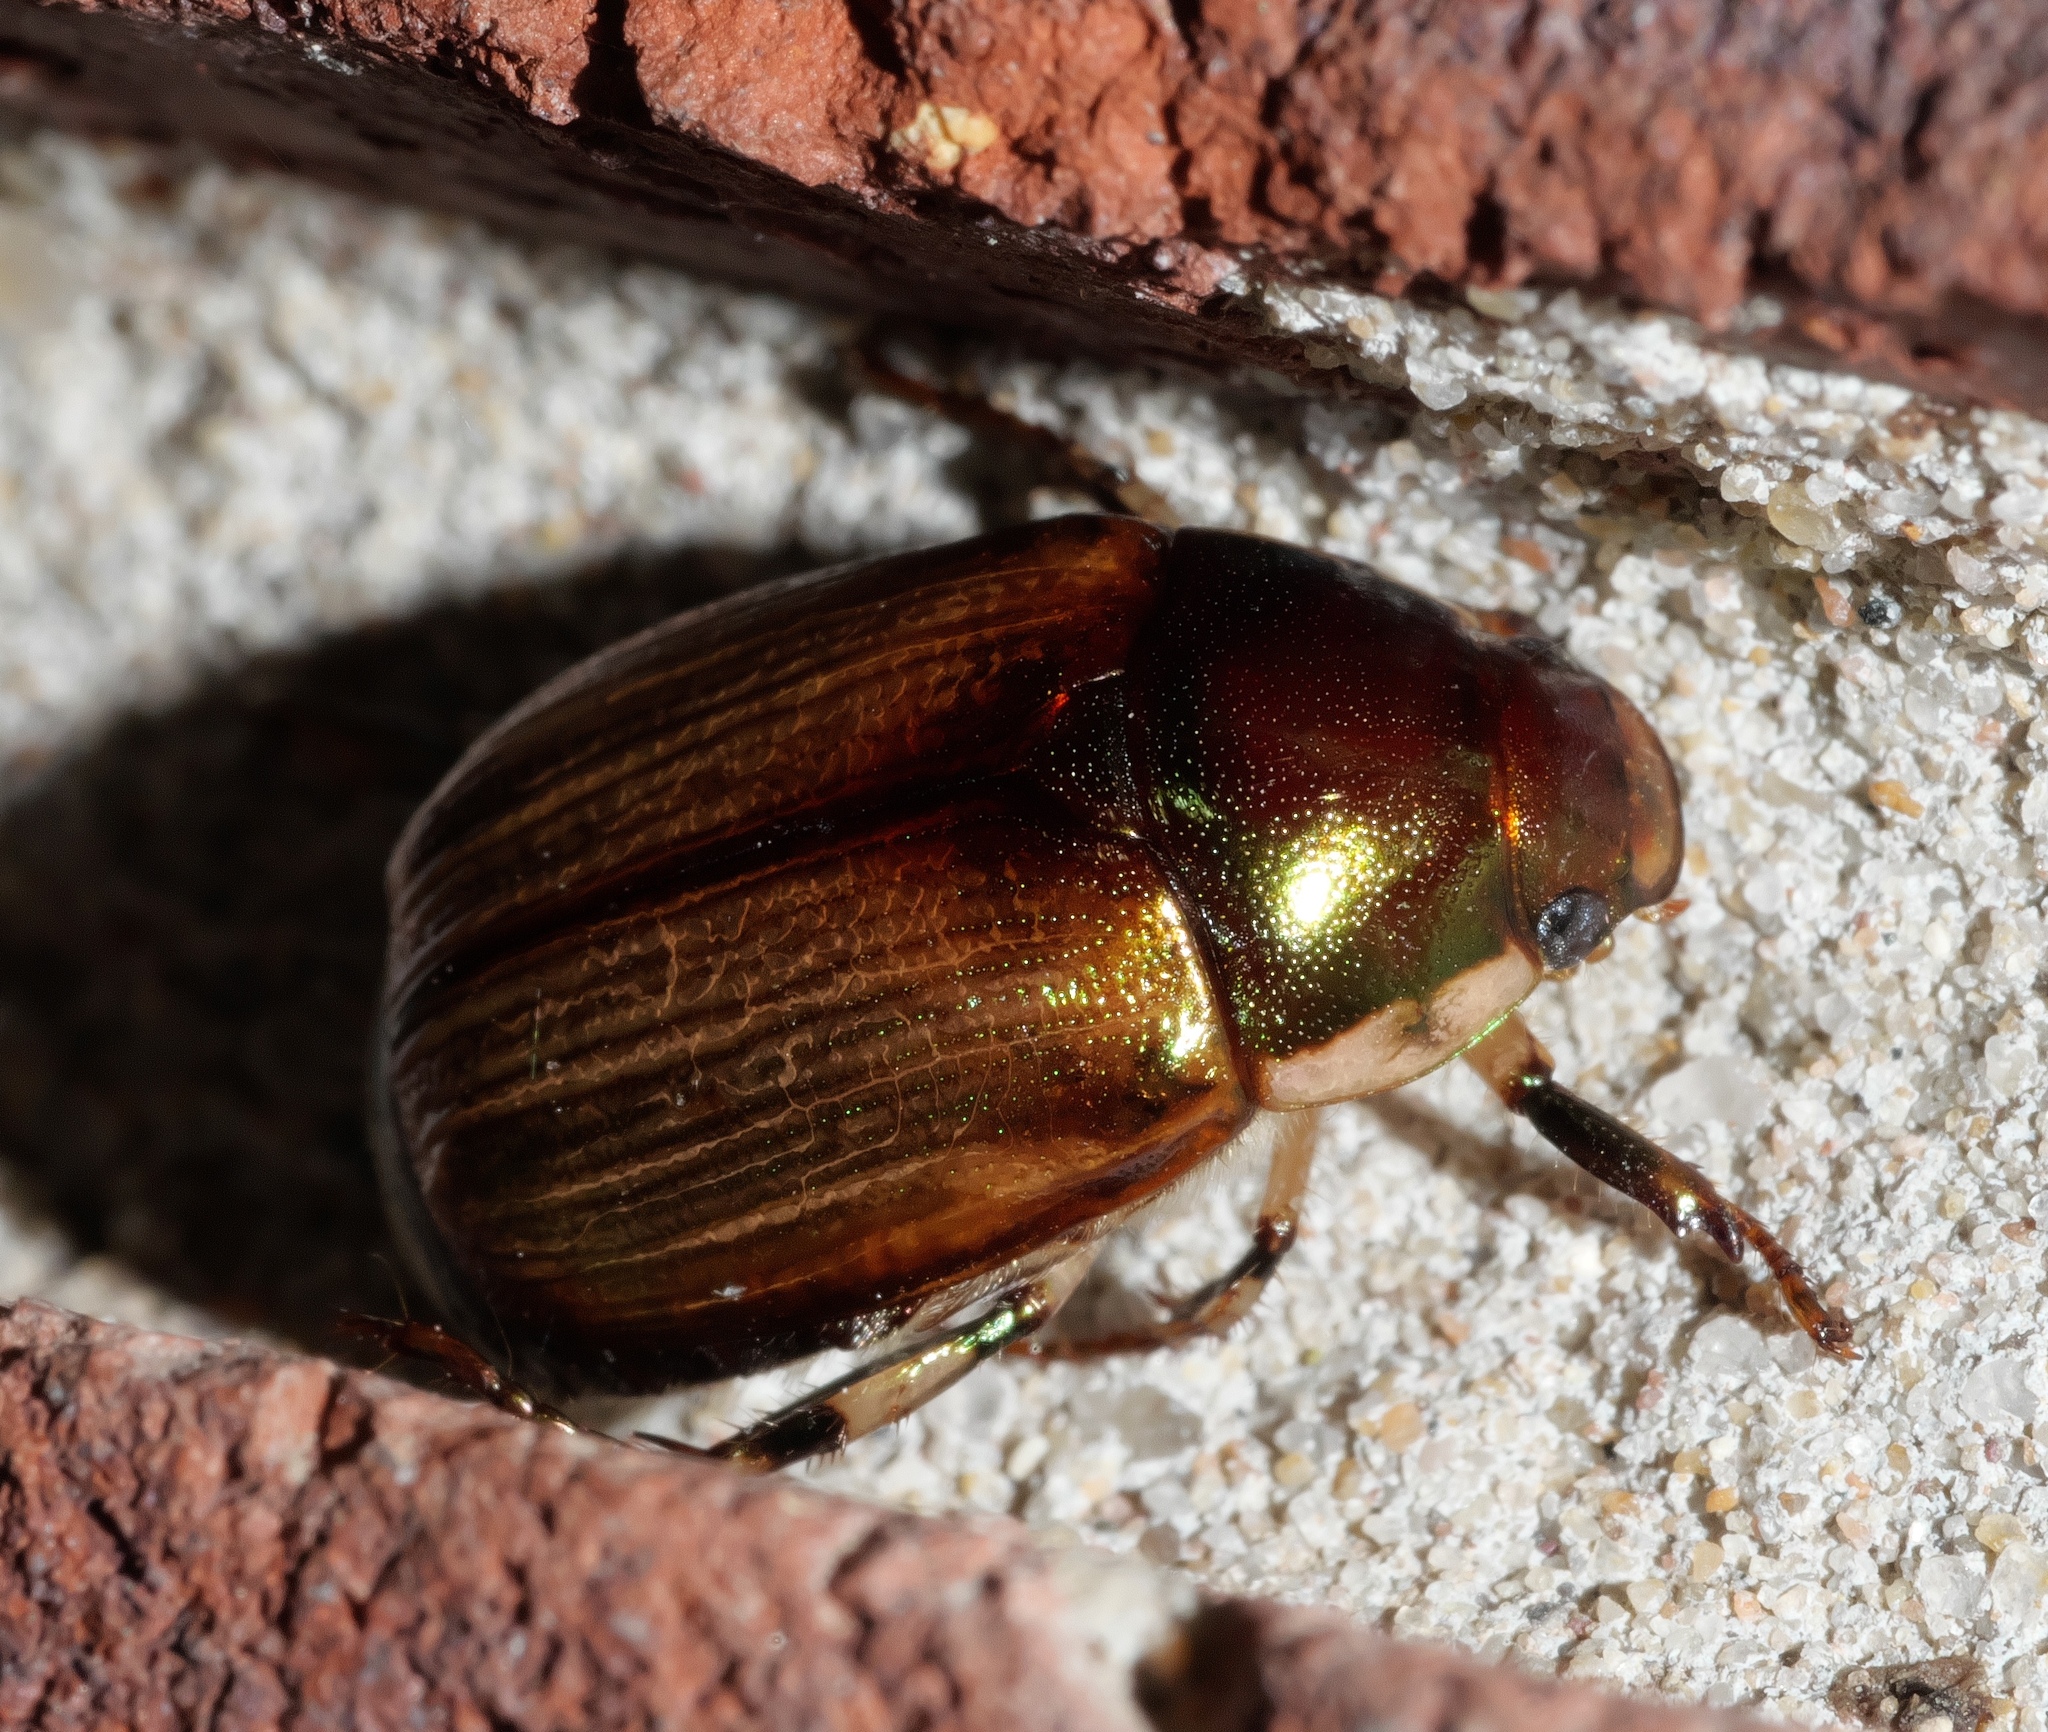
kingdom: Animalia
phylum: Arthropoda
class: Insecta
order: Coleoptera
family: Scarabaeidae
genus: Callistethus
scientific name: Callistethus marginatus
